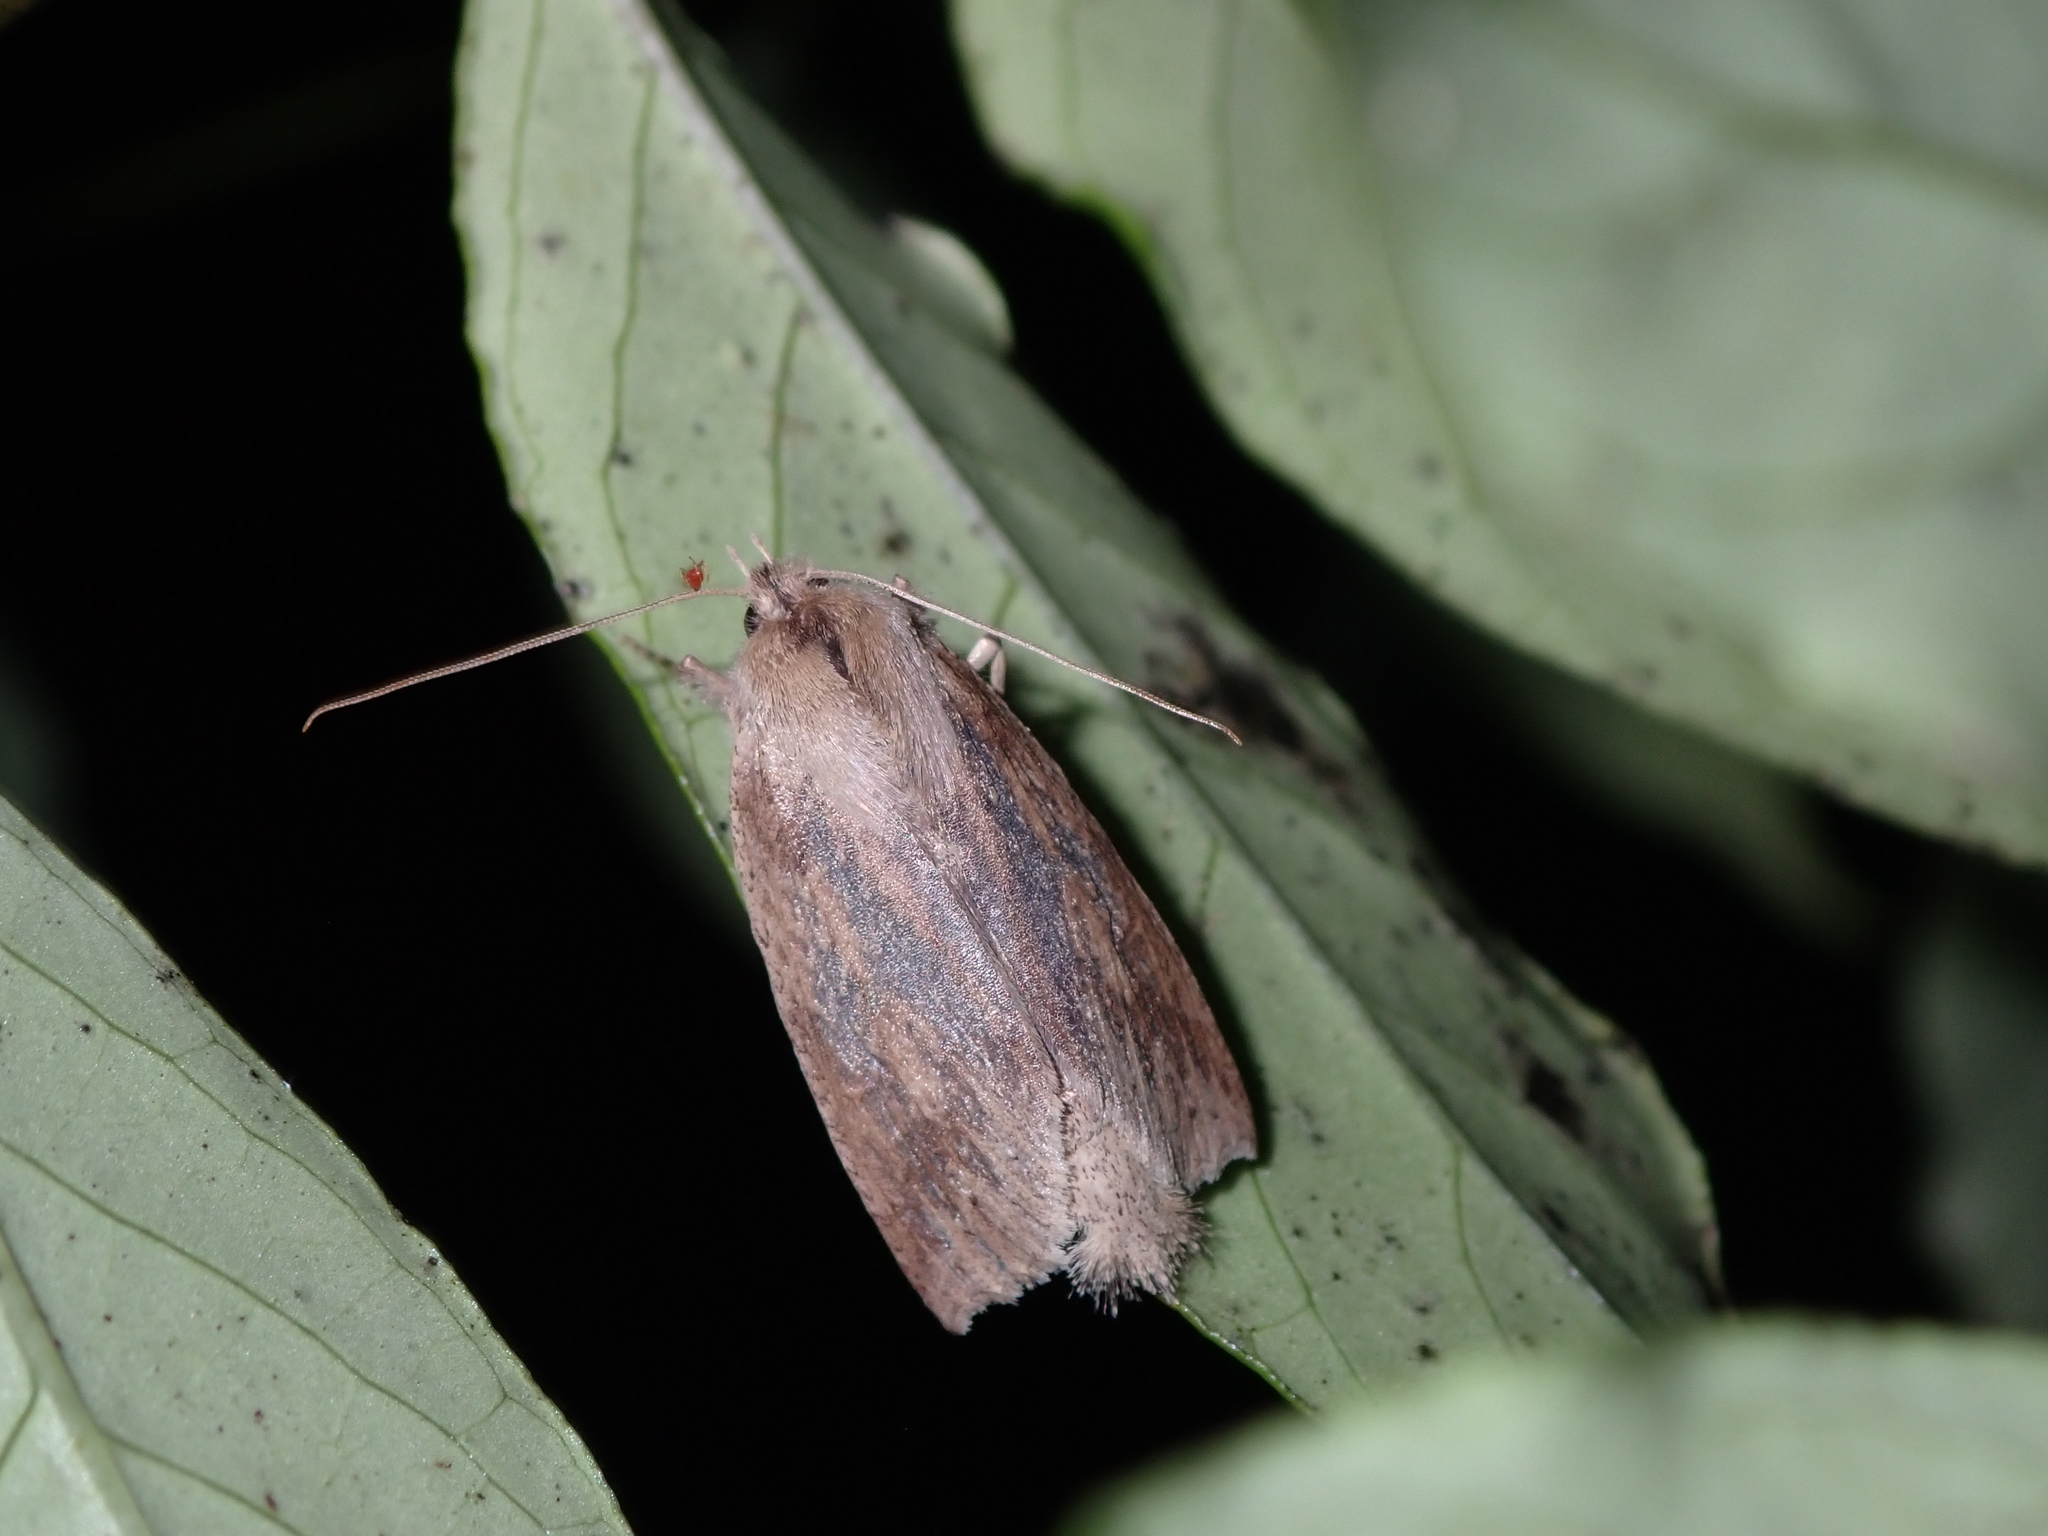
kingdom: Animalia
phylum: Arthropoda
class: Insecta
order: Lepidoptera
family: Geometridae
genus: Declana
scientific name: Declana leptomera
